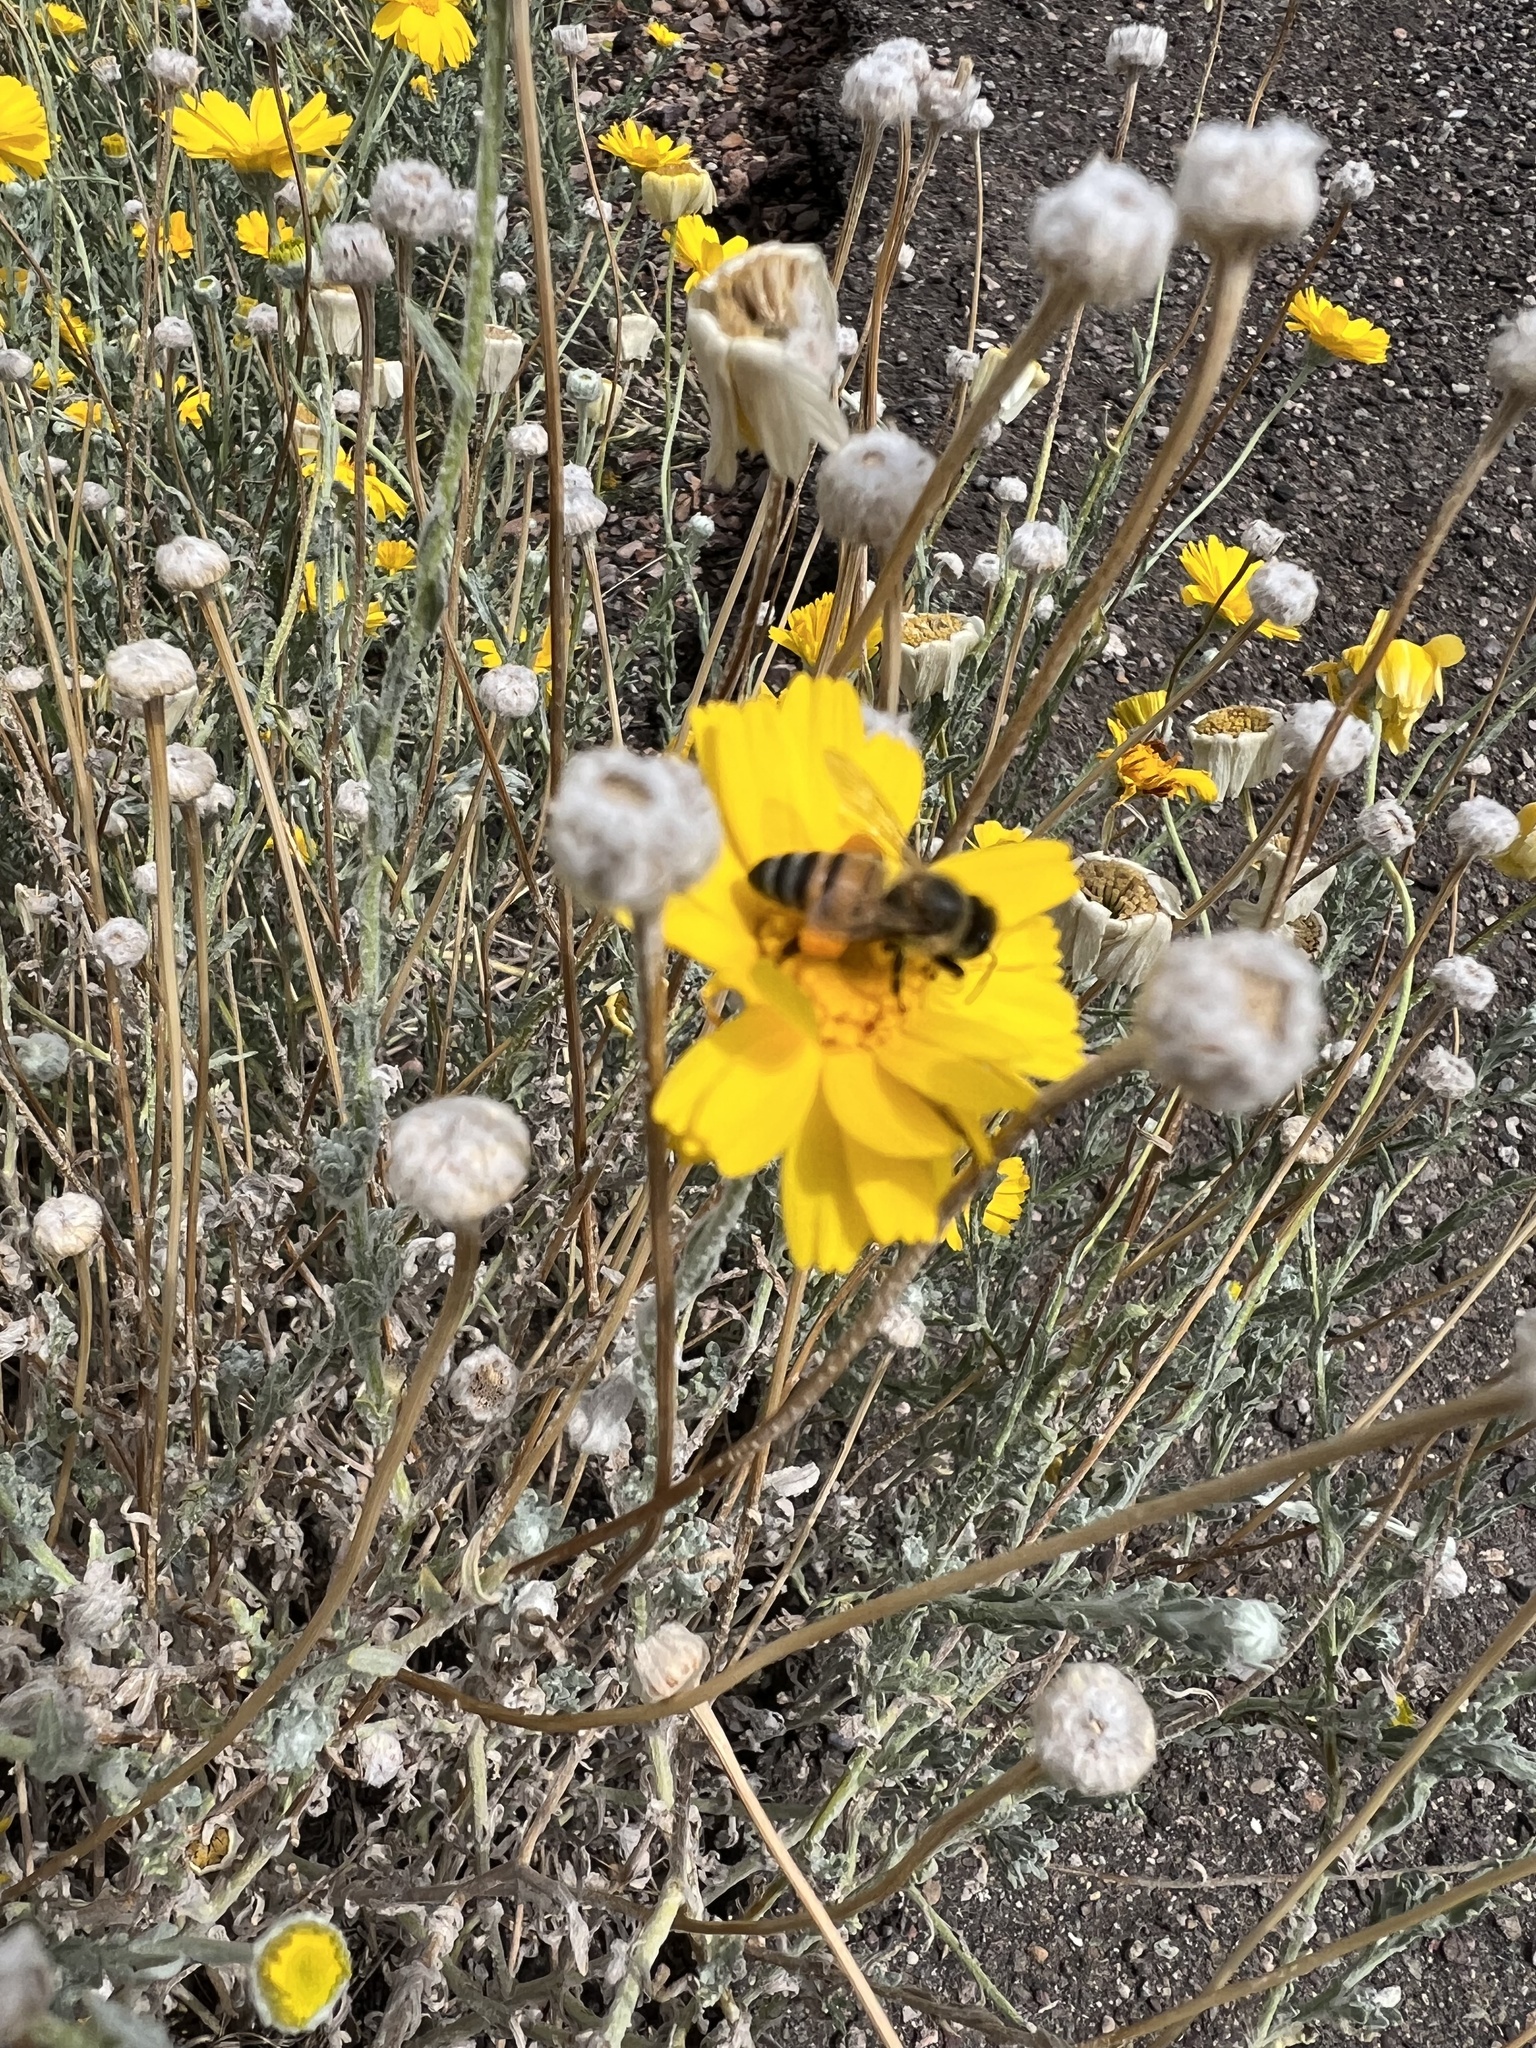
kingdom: Animalia
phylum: Arthropoda
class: Insecta
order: Hymenoptera
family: Apidae
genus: Apis
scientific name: Apis mellifera
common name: Honey bee
